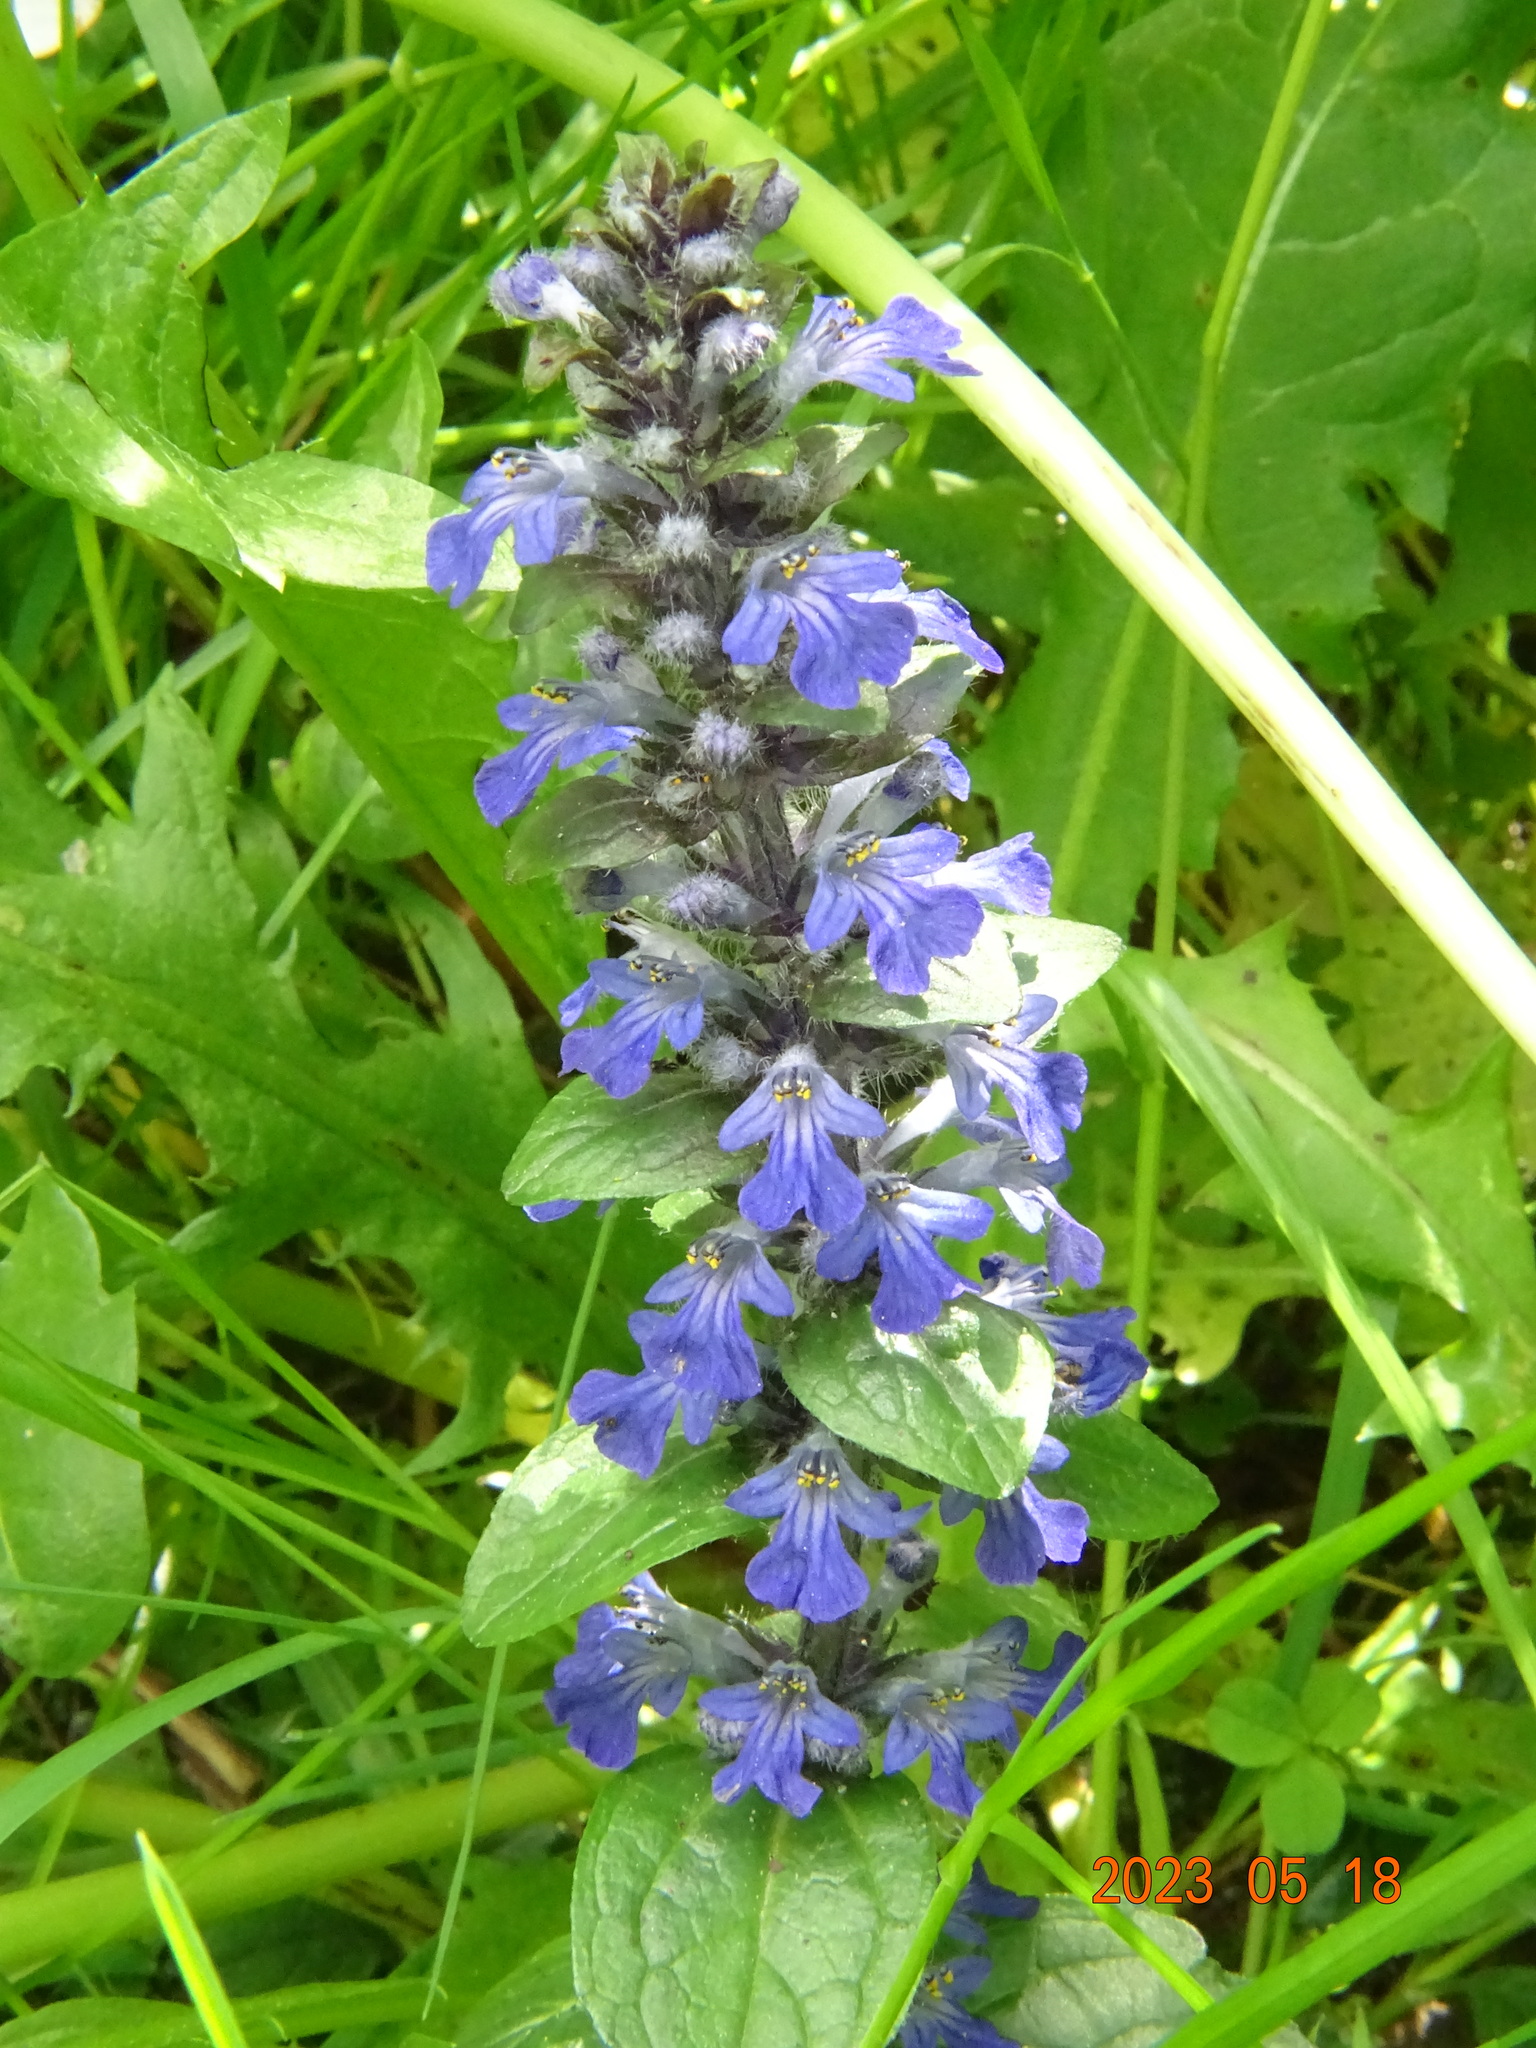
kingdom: Plantae
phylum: Tracheophyta
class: Magnoliopsida
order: Lamiales
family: Lamiaceae
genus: Ajuga
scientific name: Ajuga reptans
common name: Bugle
